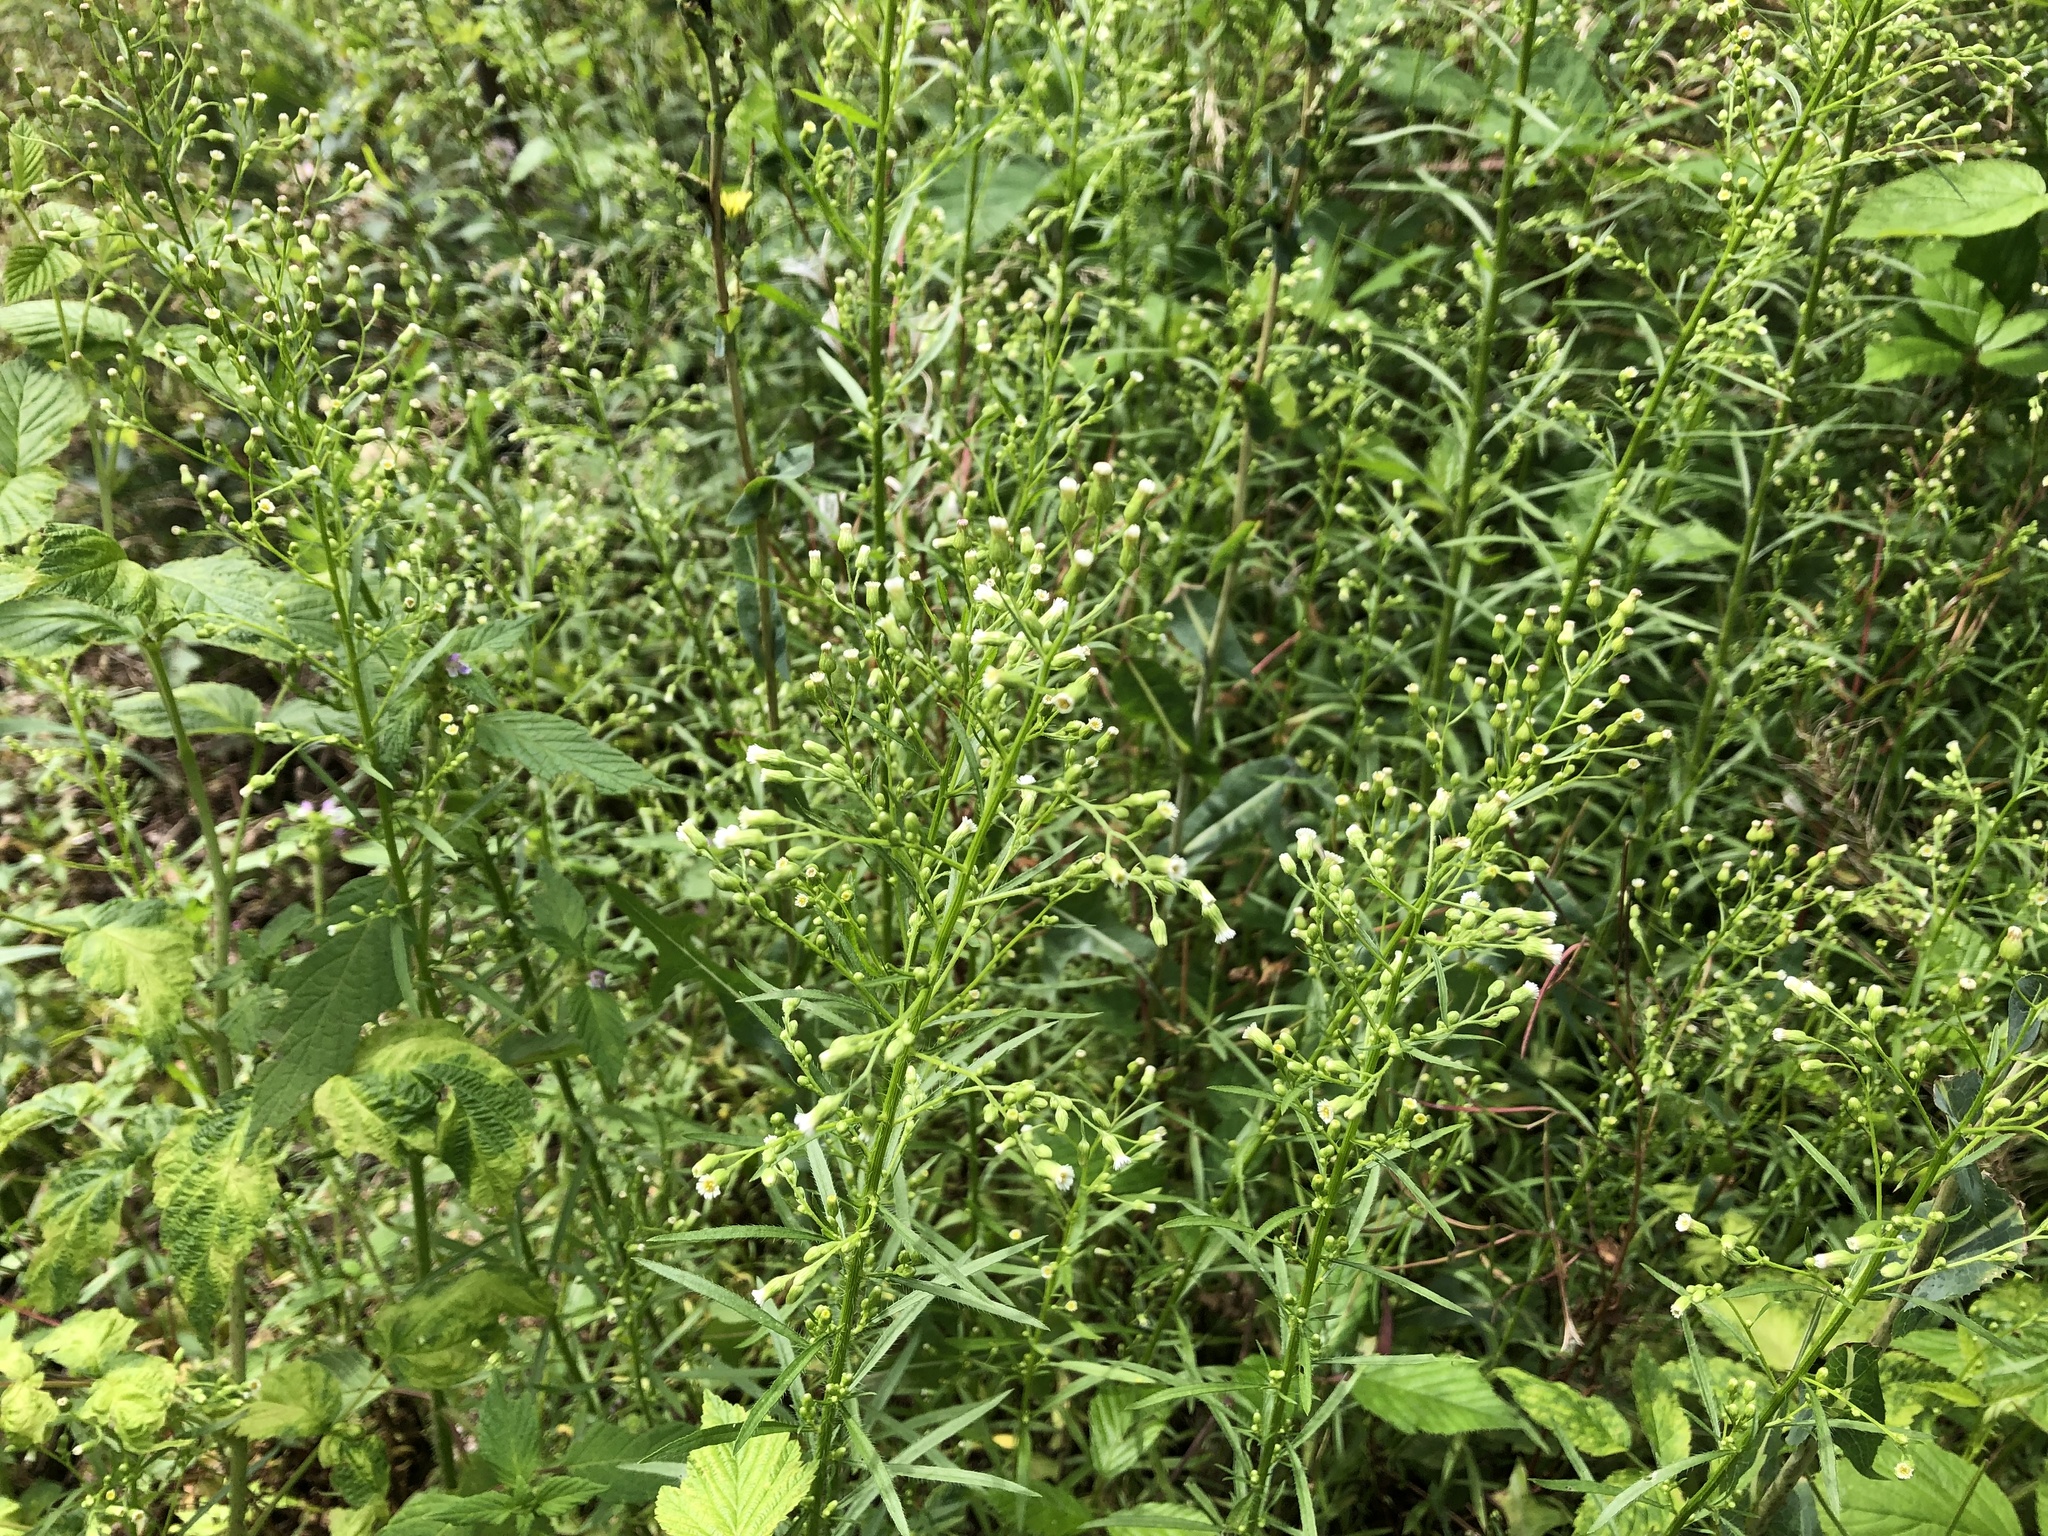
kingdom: Plantae
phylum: Tracheophyta
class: Magnoliopsida
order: Asterales
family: Asteraceae
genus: Erigeron
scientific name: Erigeron canadensis
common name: Canadian fleabane
